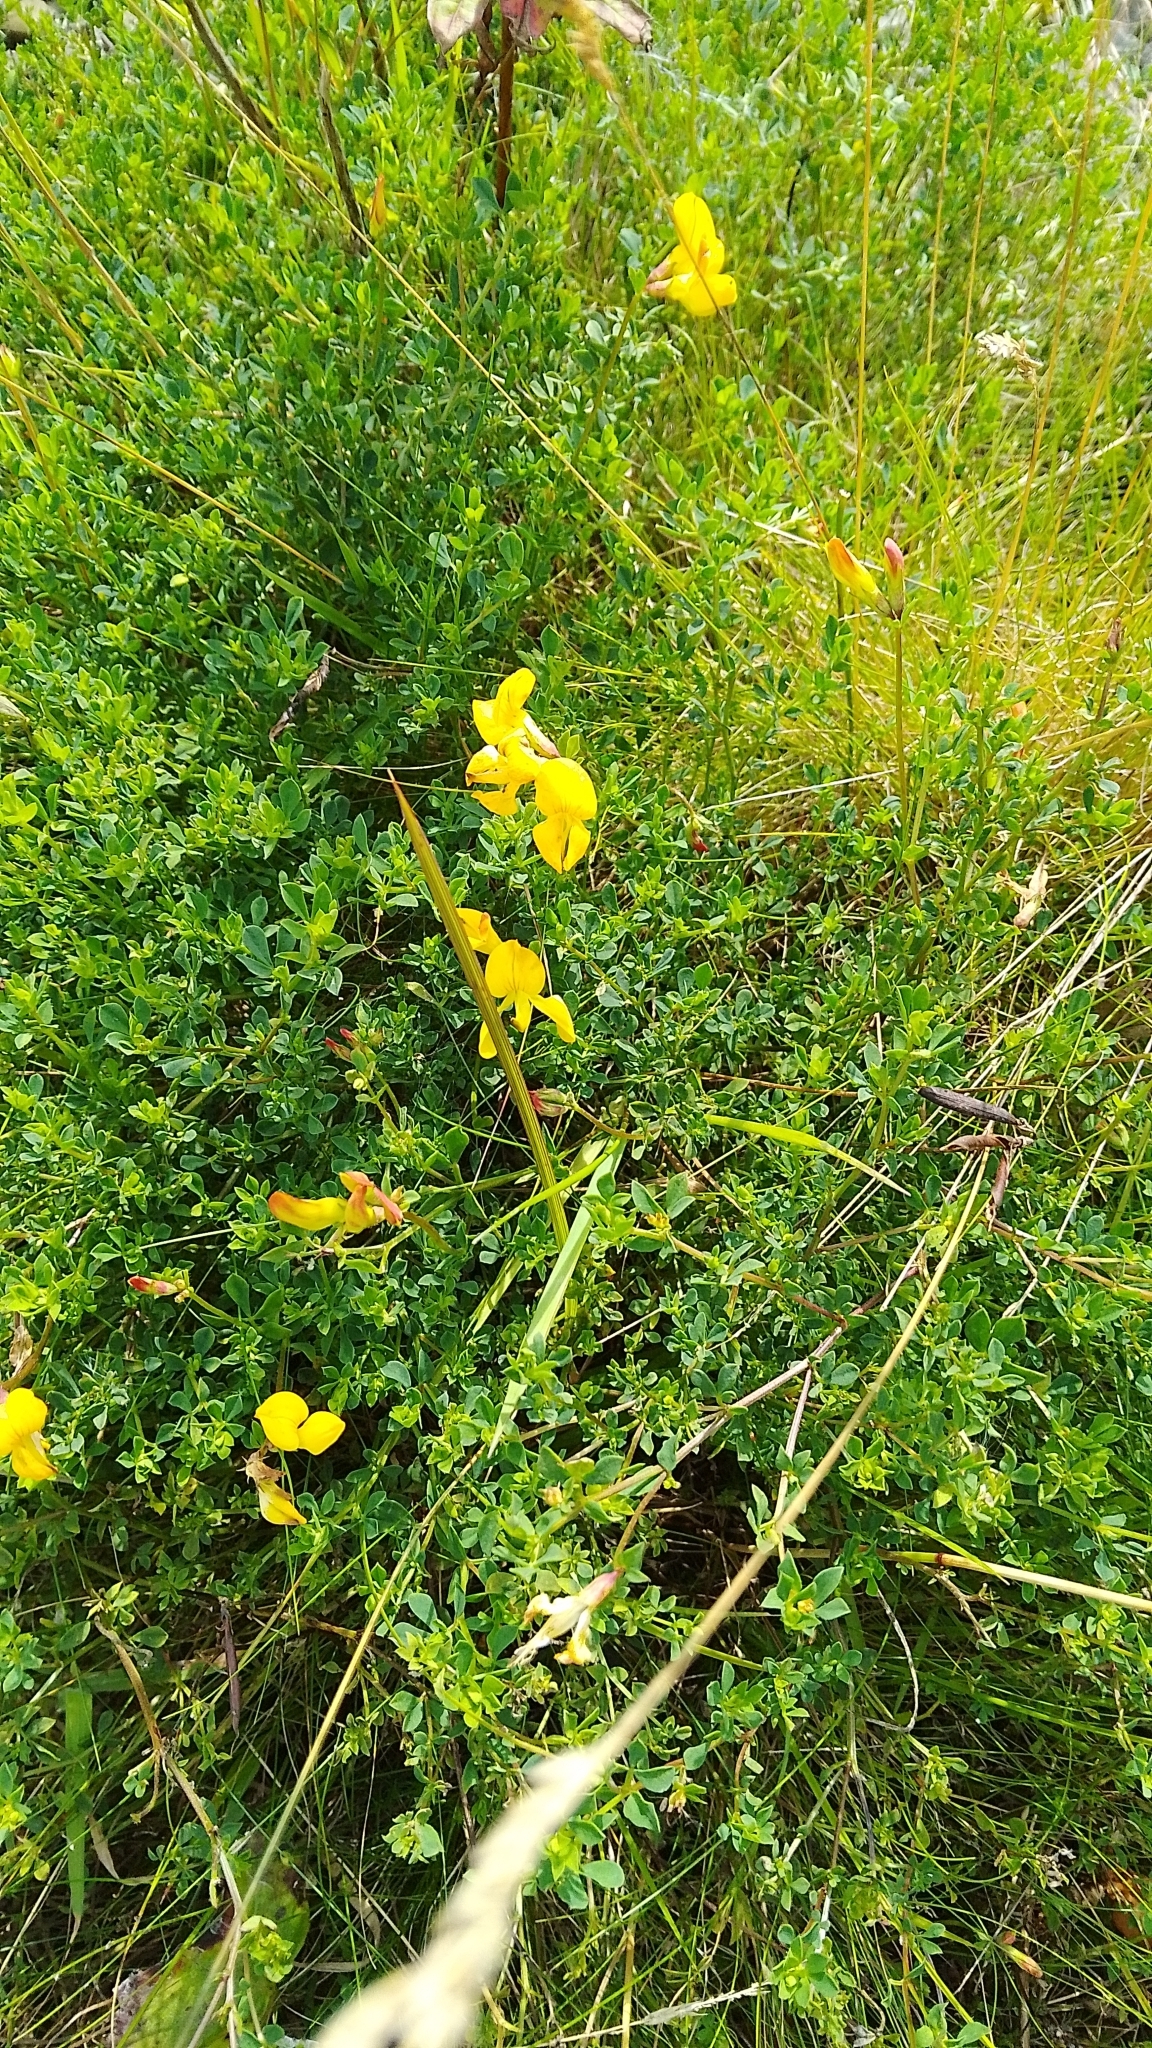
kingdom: Plantae
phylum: Tracheophyta
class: Magnoliopsida
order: Fabales
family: Fabaceae
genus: Lotus
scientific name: Lotus corniculatus
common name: Common bird's-foot-trefoil
